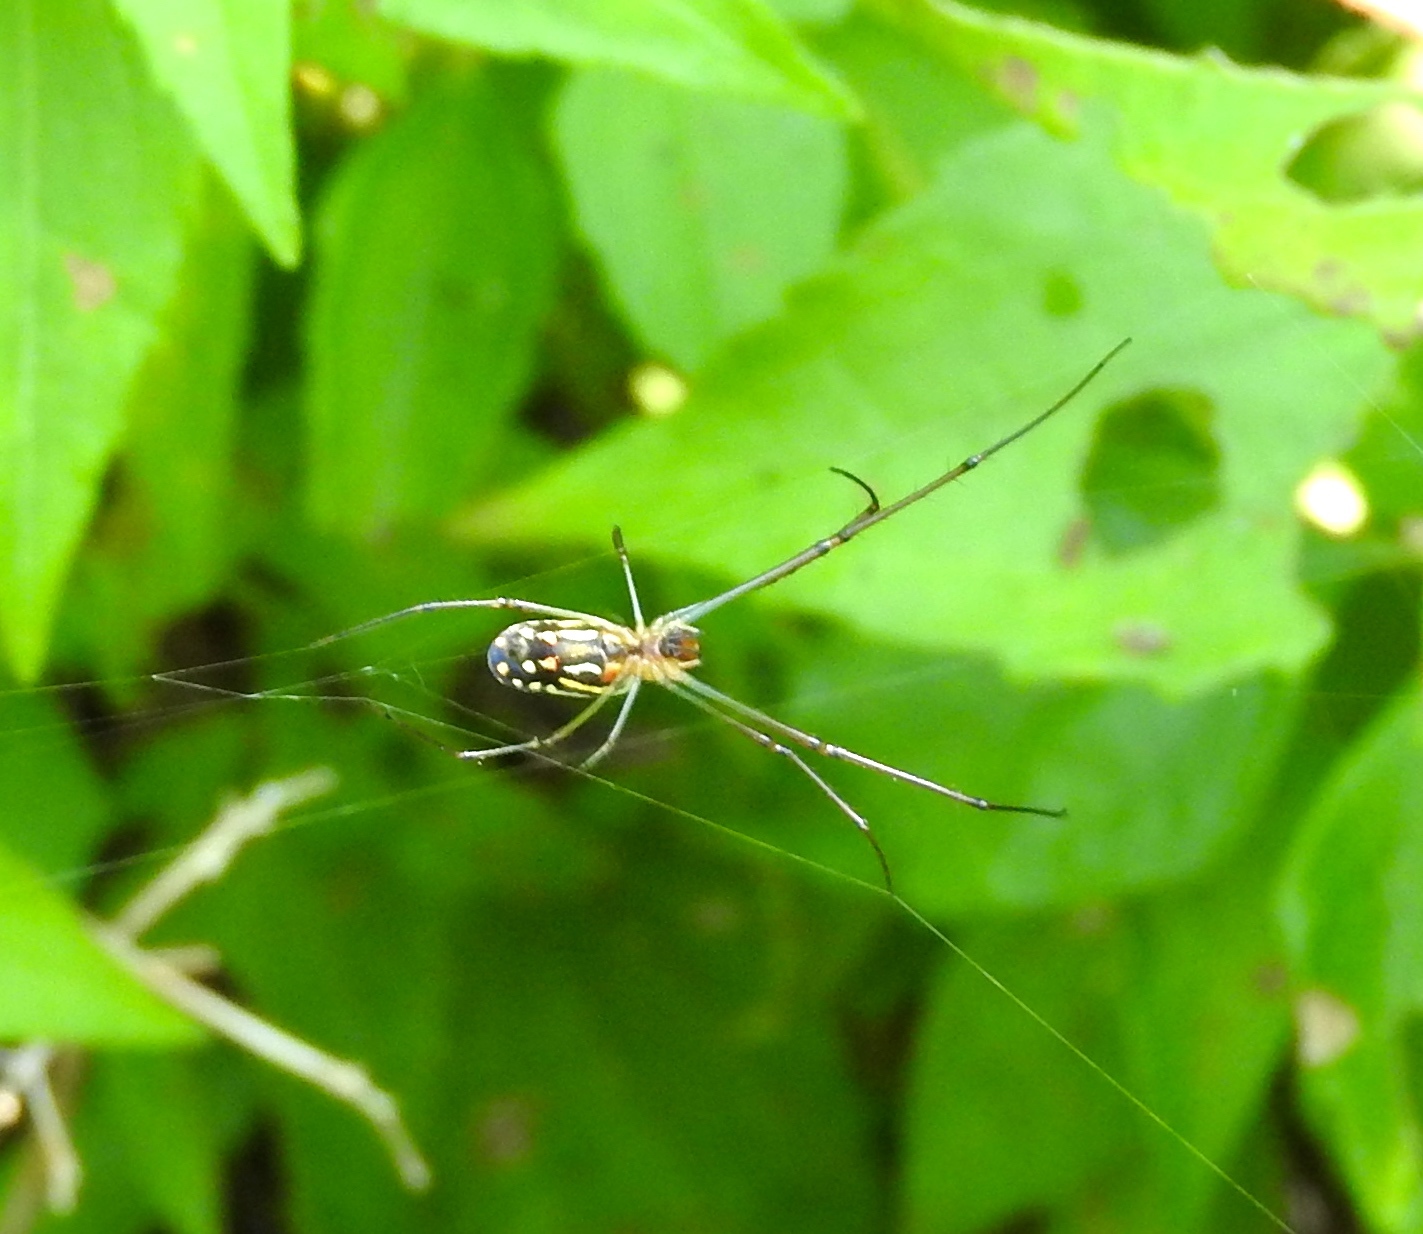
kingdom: Animalia
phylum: Arthropoda
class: Arachnida
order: Araneae
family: Tetragnathidae
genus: Leucauge
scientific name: Leucauge argyra
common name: Longjawed orb weavers
